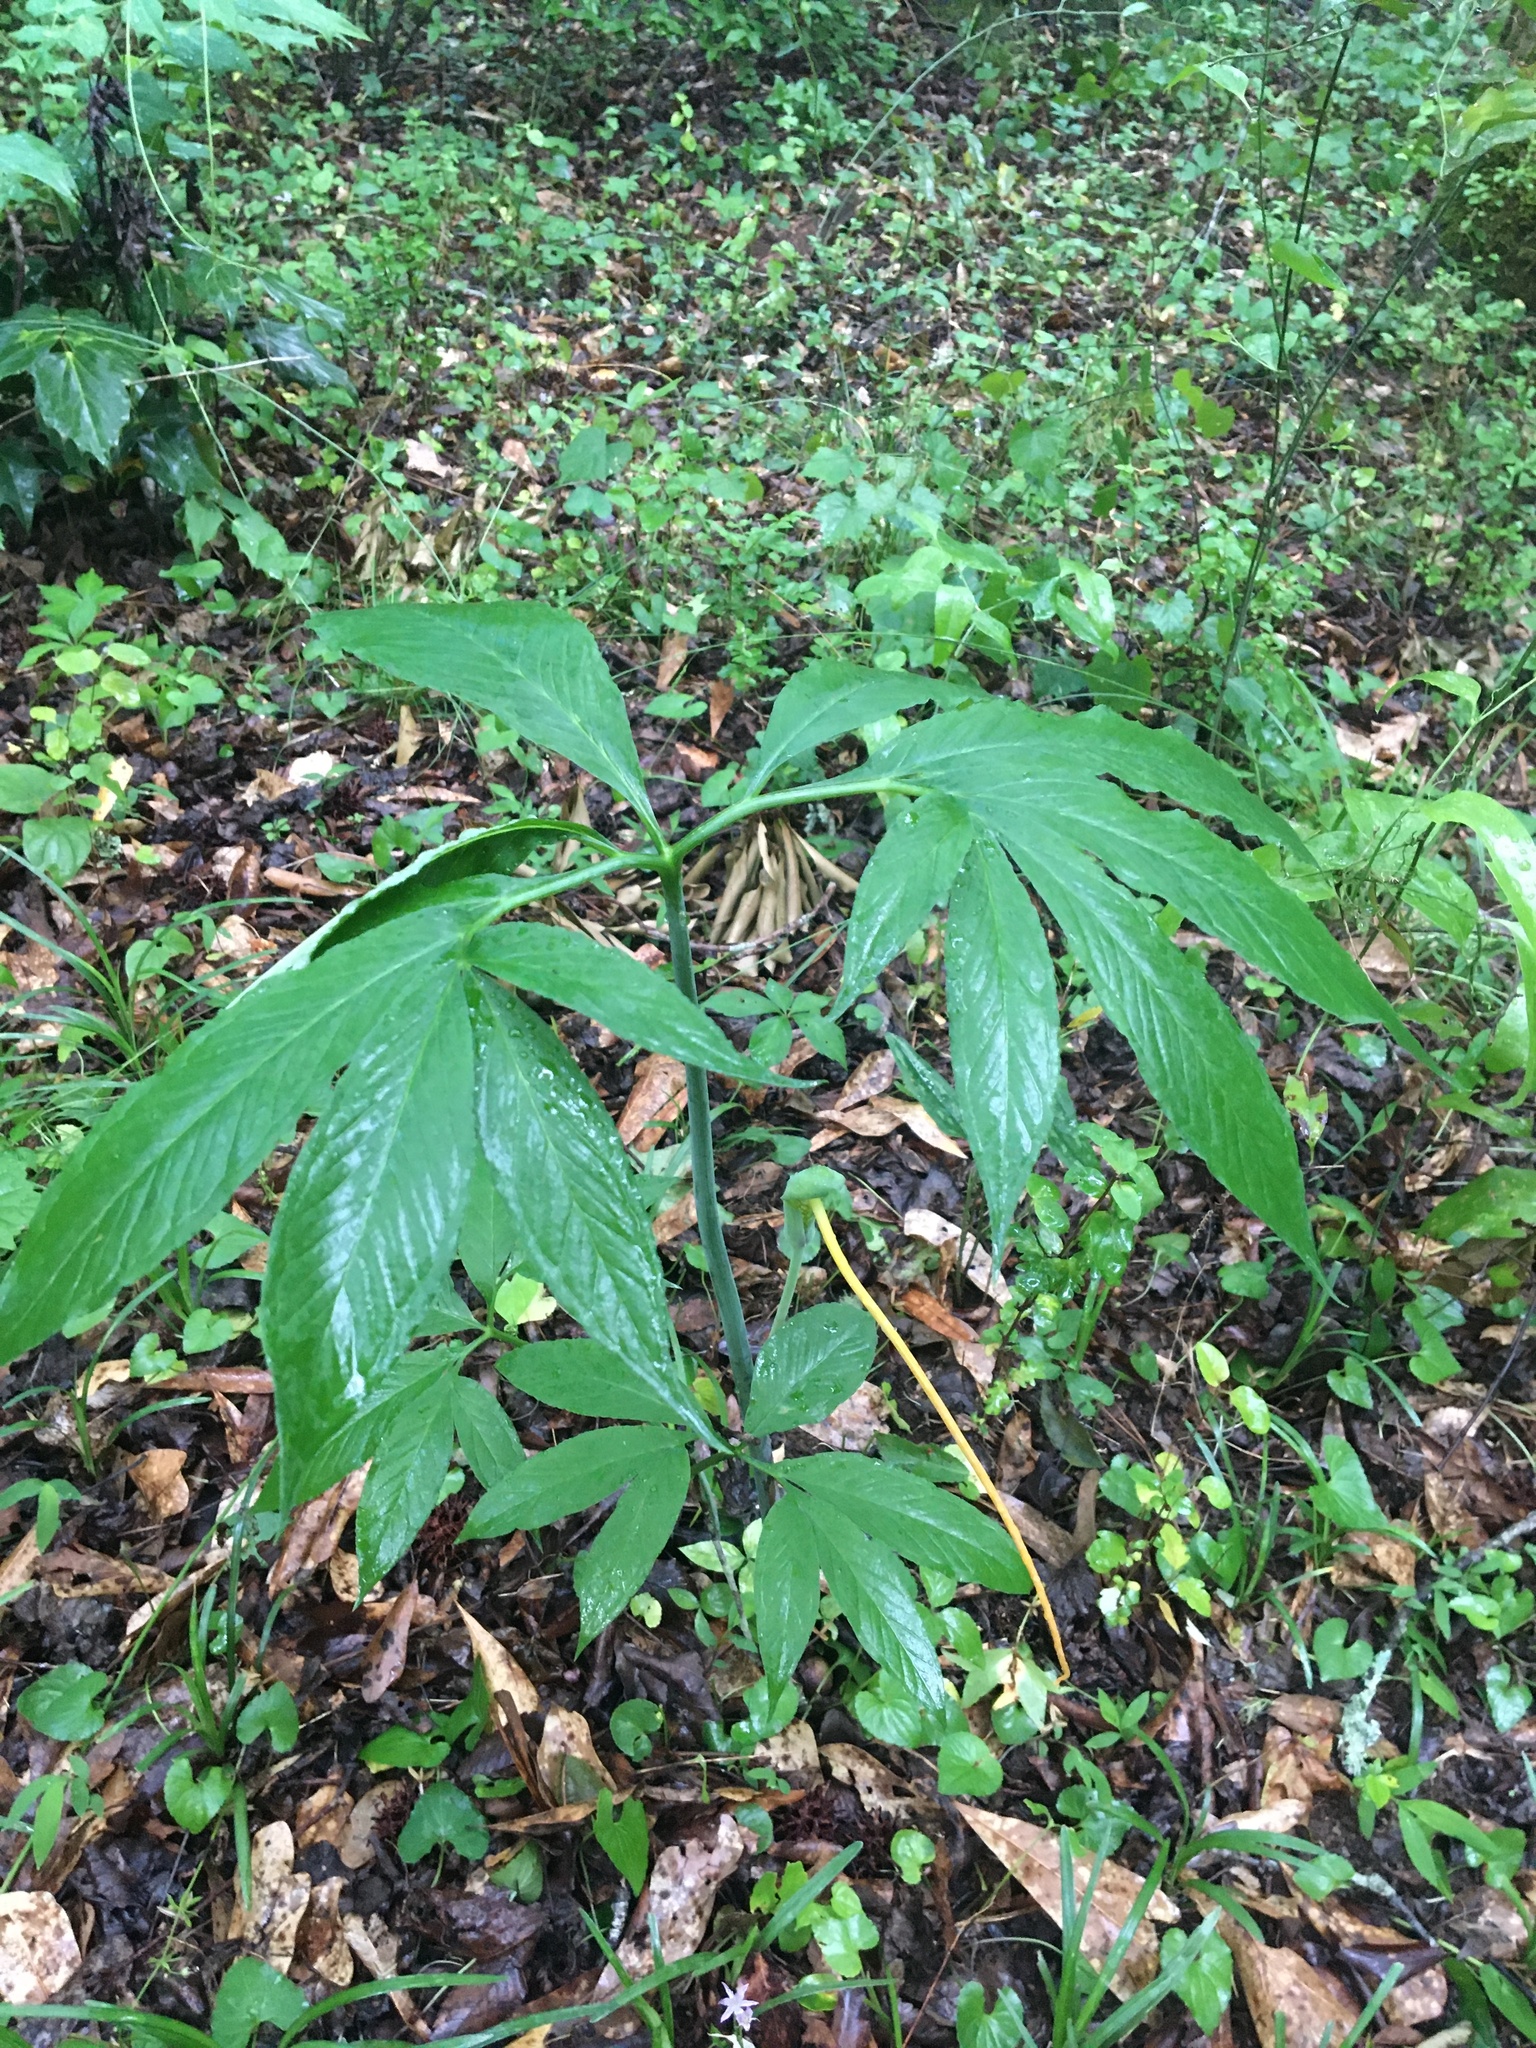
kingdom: Plantae
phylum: Tracheophyta
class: Liliopsida
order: Alismatales
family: Araceae
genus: Arisaema
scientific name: Arisaema dracontium
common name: Dragon-arum
